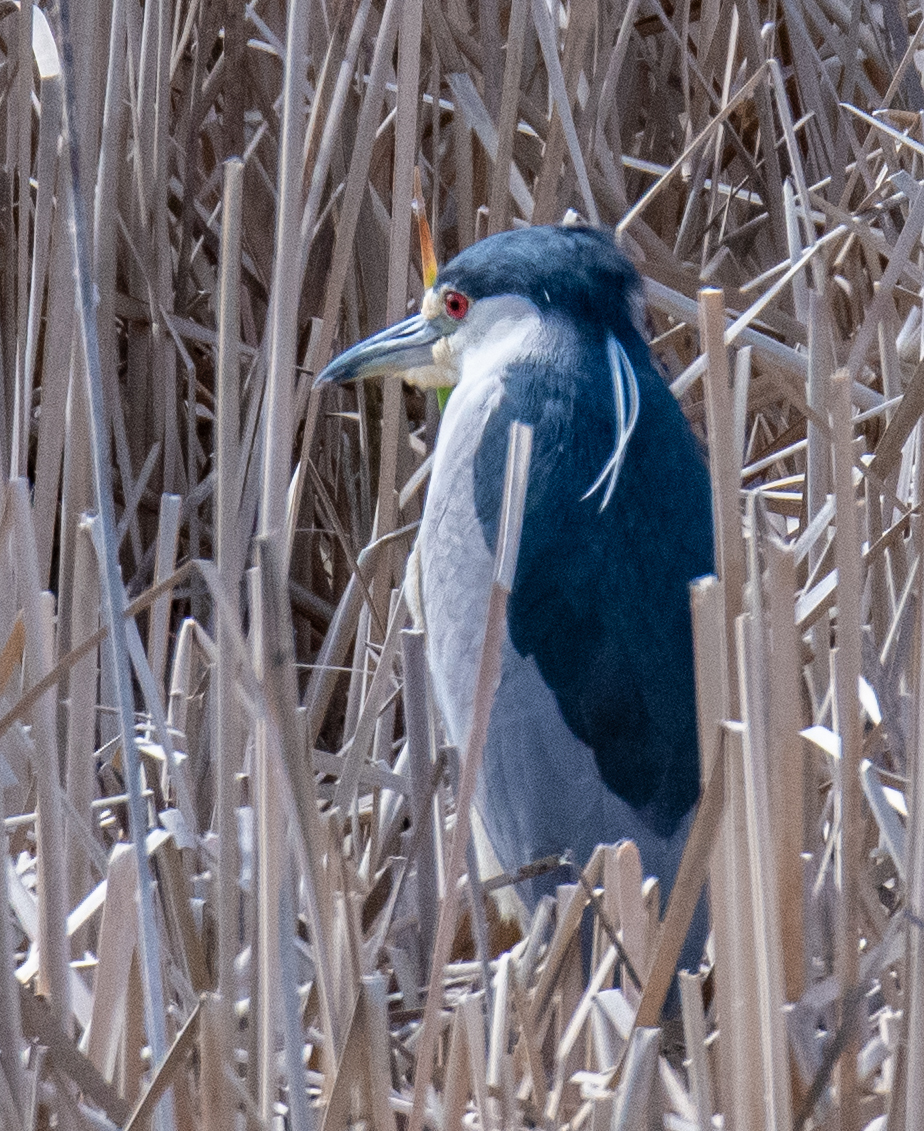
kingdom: Animalia
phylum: Chordata
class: Aves
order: Pelecaniformes
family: Ardeidae
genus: Nycticorax
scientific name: Nycticorax nycticorax
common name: Black-crowned night heron
